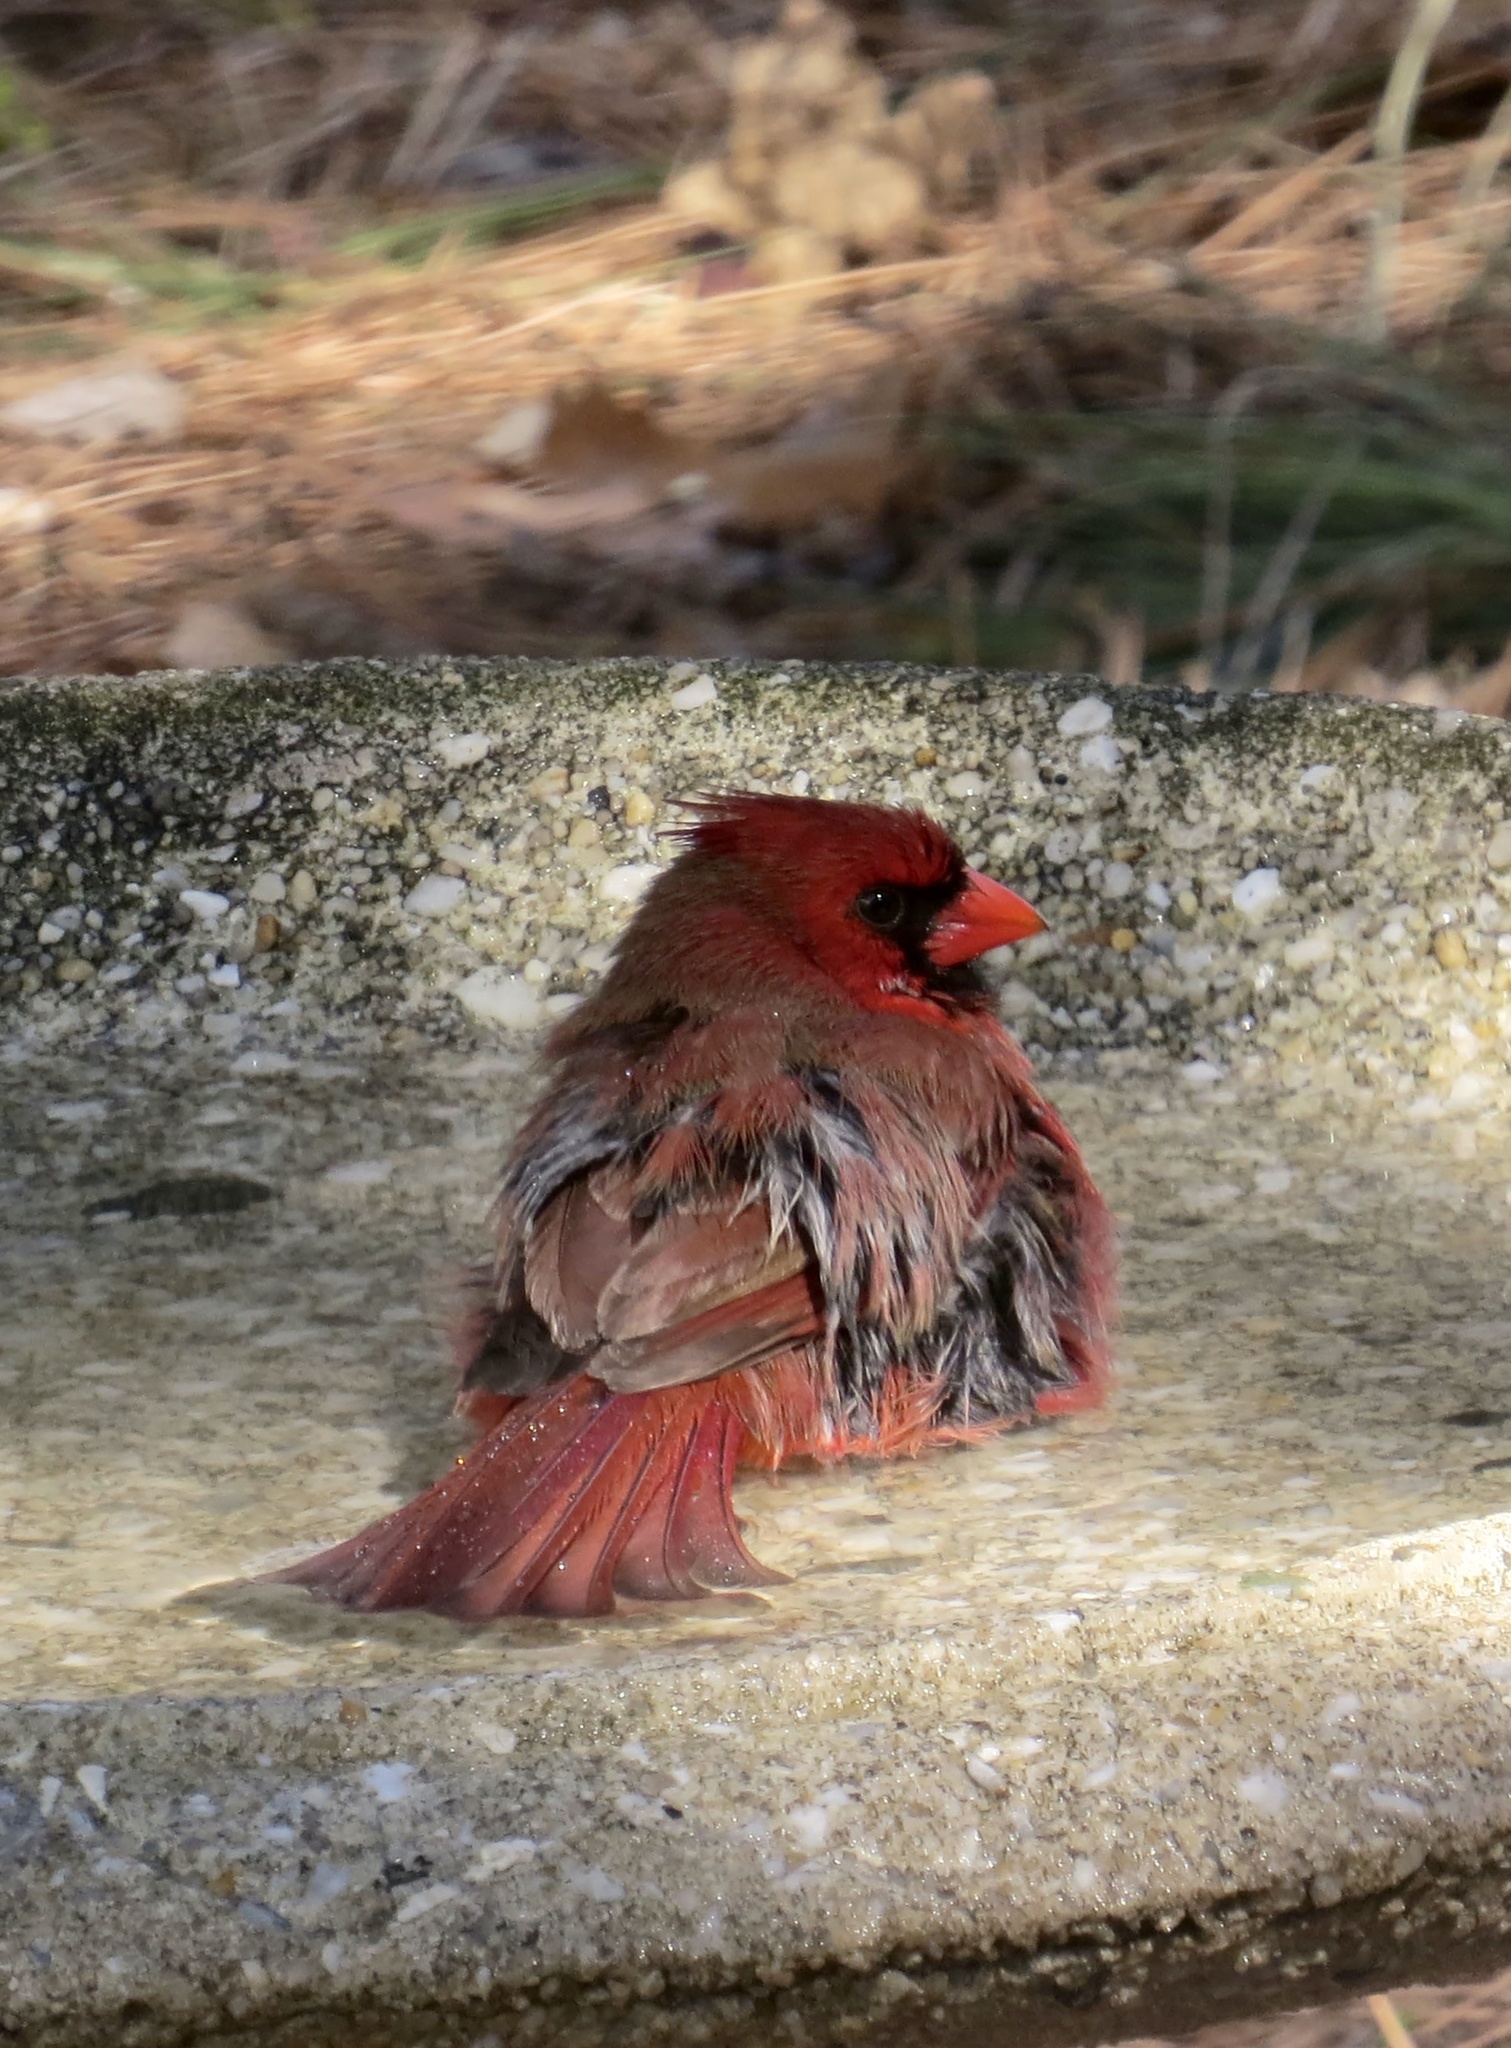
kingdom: Animalia
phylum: Chordata
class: Aves
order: Passeriformes
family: Cardinalidae
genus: Cardinalis
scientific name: Cardinalis cardinalis
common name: Northern cardinal
